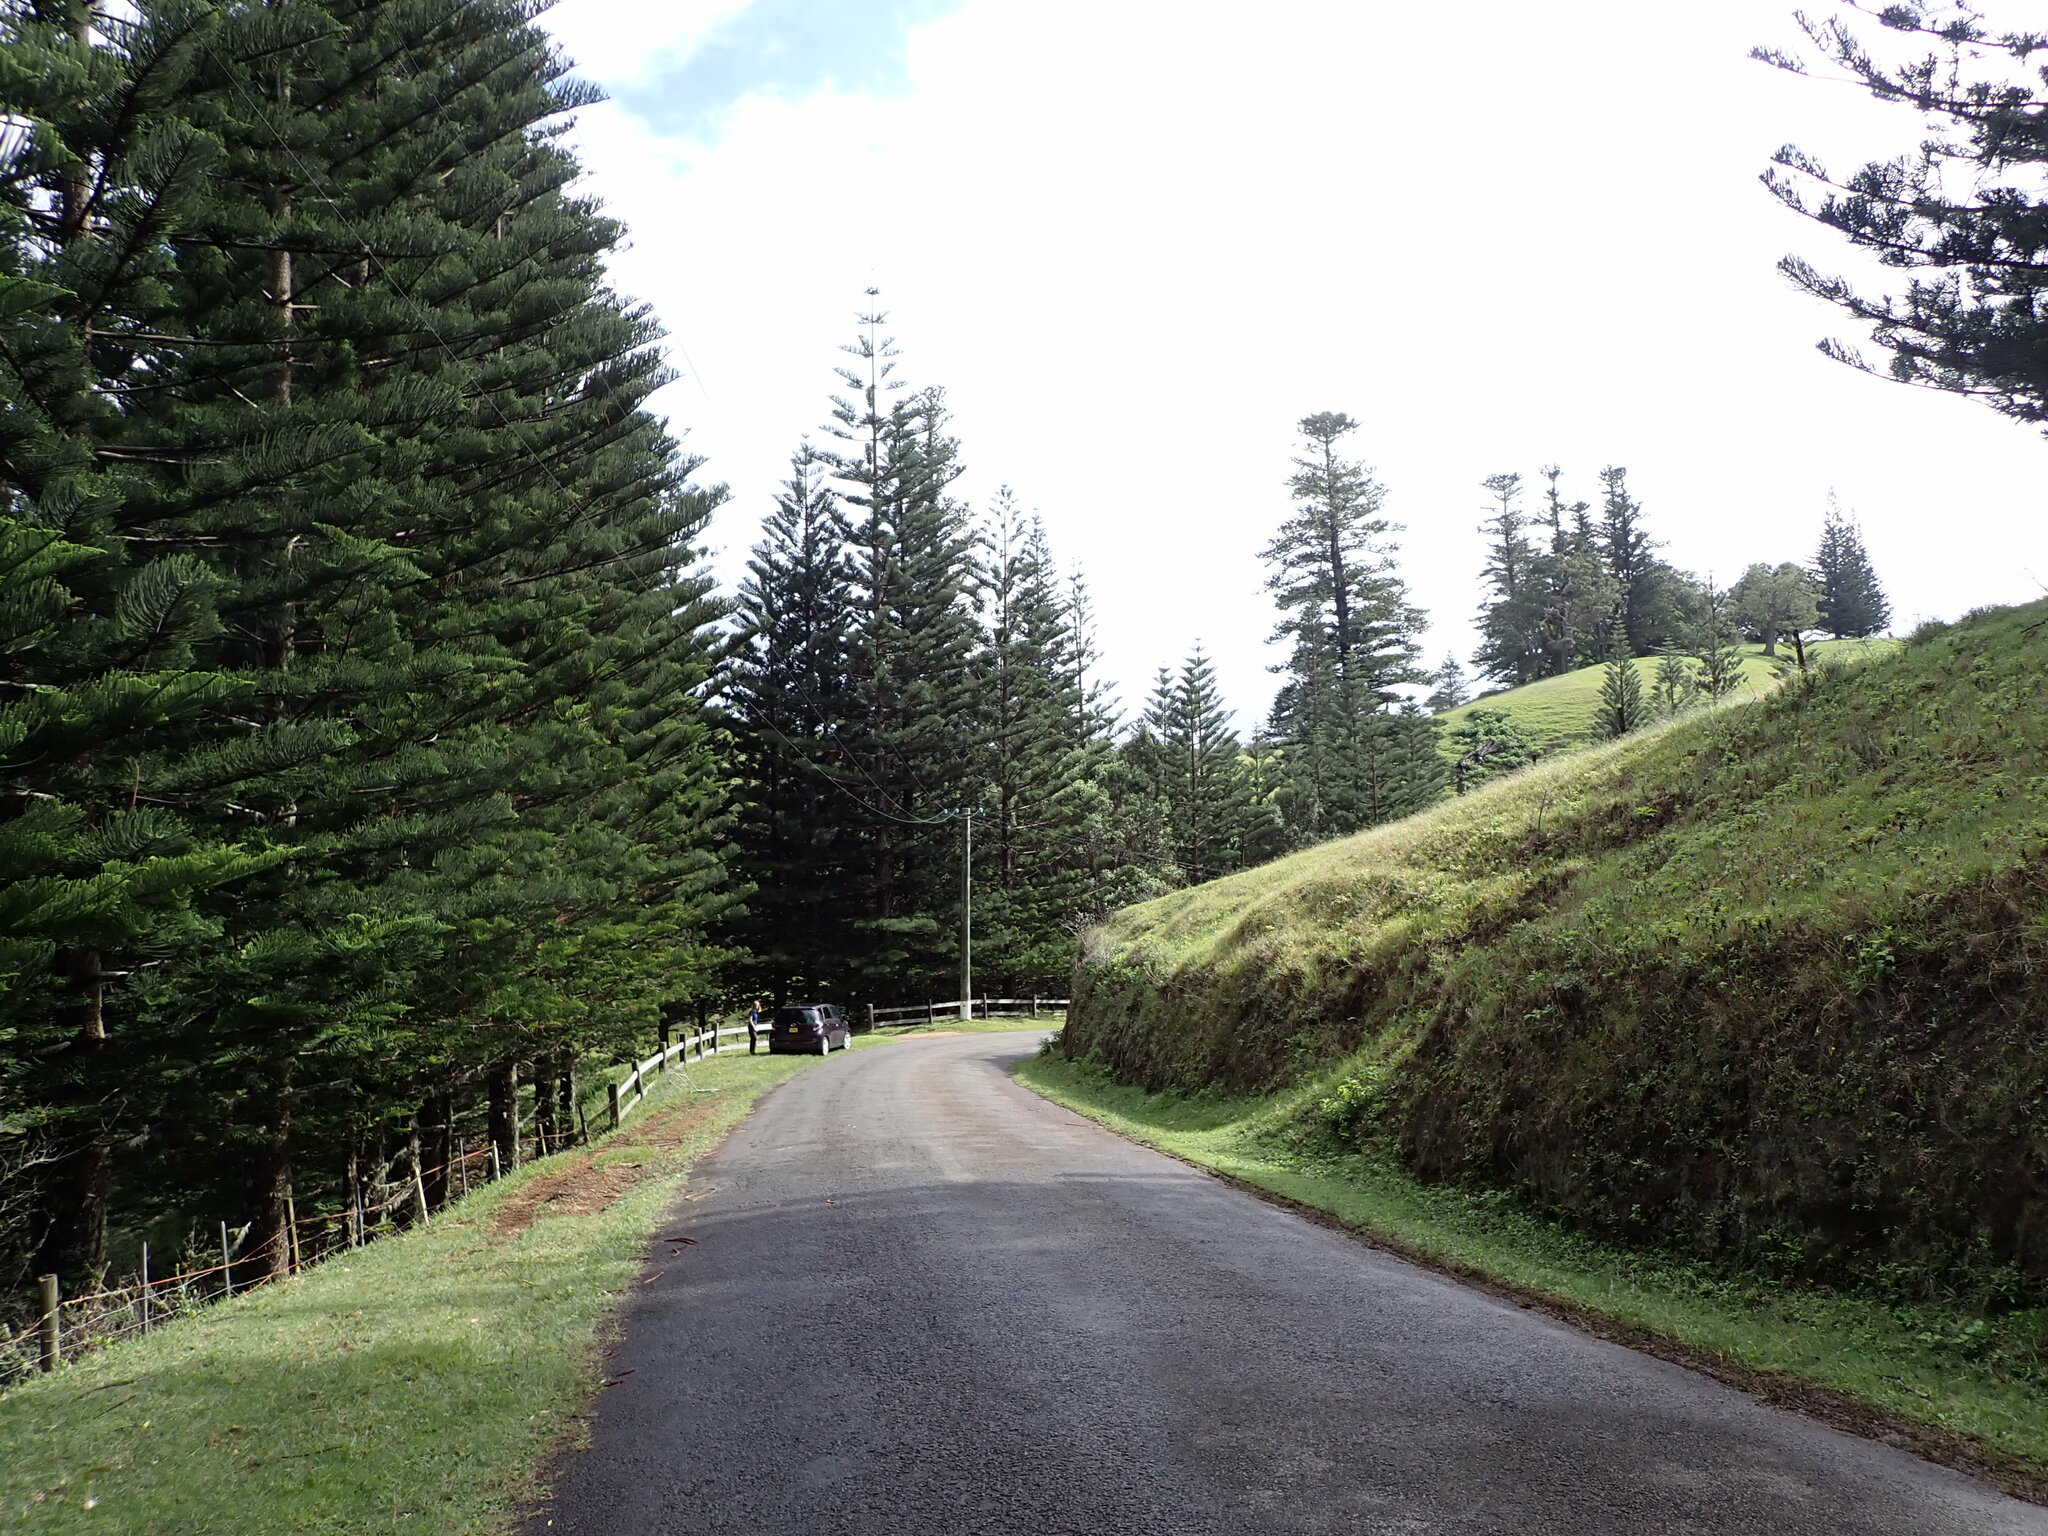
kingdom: Plantae
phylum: Tracheophyta
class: Pinopsida
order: Pinales
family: Araucariaceae
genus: Araucaria
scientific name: Araucaria heterophylla
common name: Norfolk island pine
